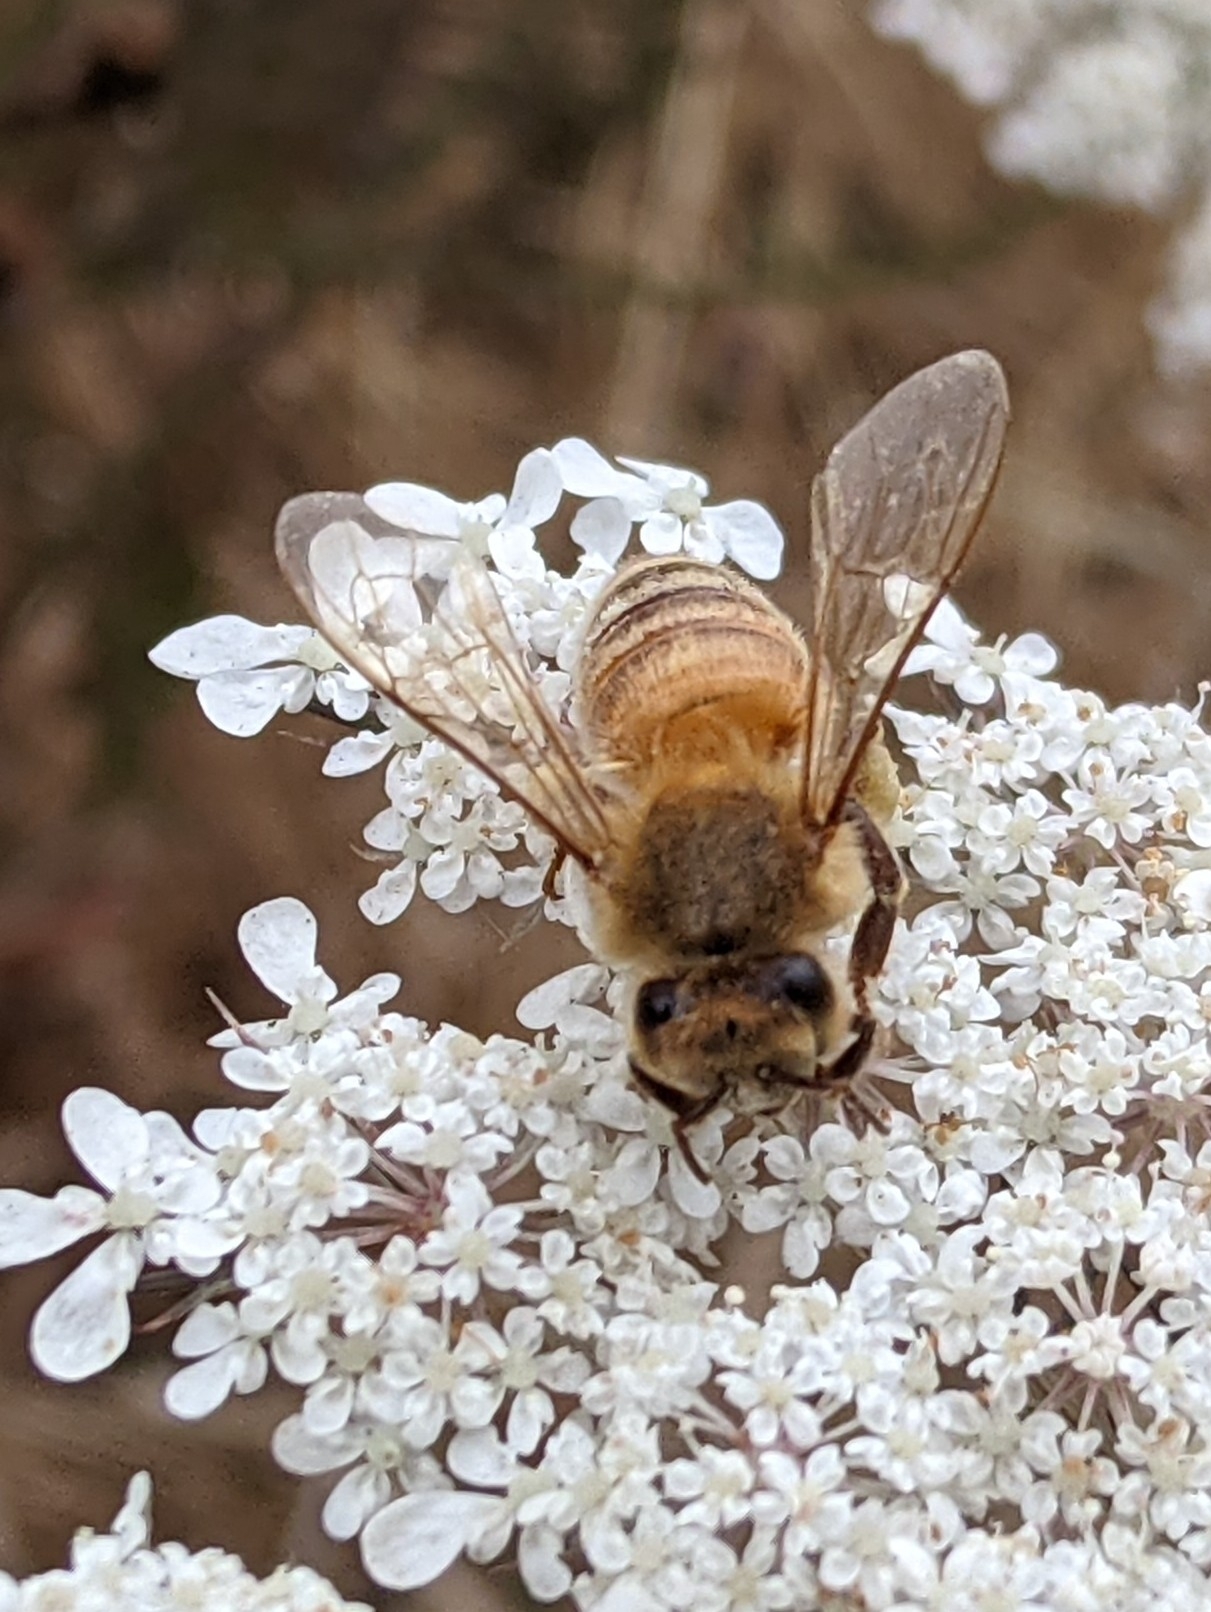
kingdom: Animalia
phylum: Arthropoda
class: Insecta
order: Hymenoptera
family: Apidae
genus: Apis
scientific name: Apis mellifera
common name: Honey bee
